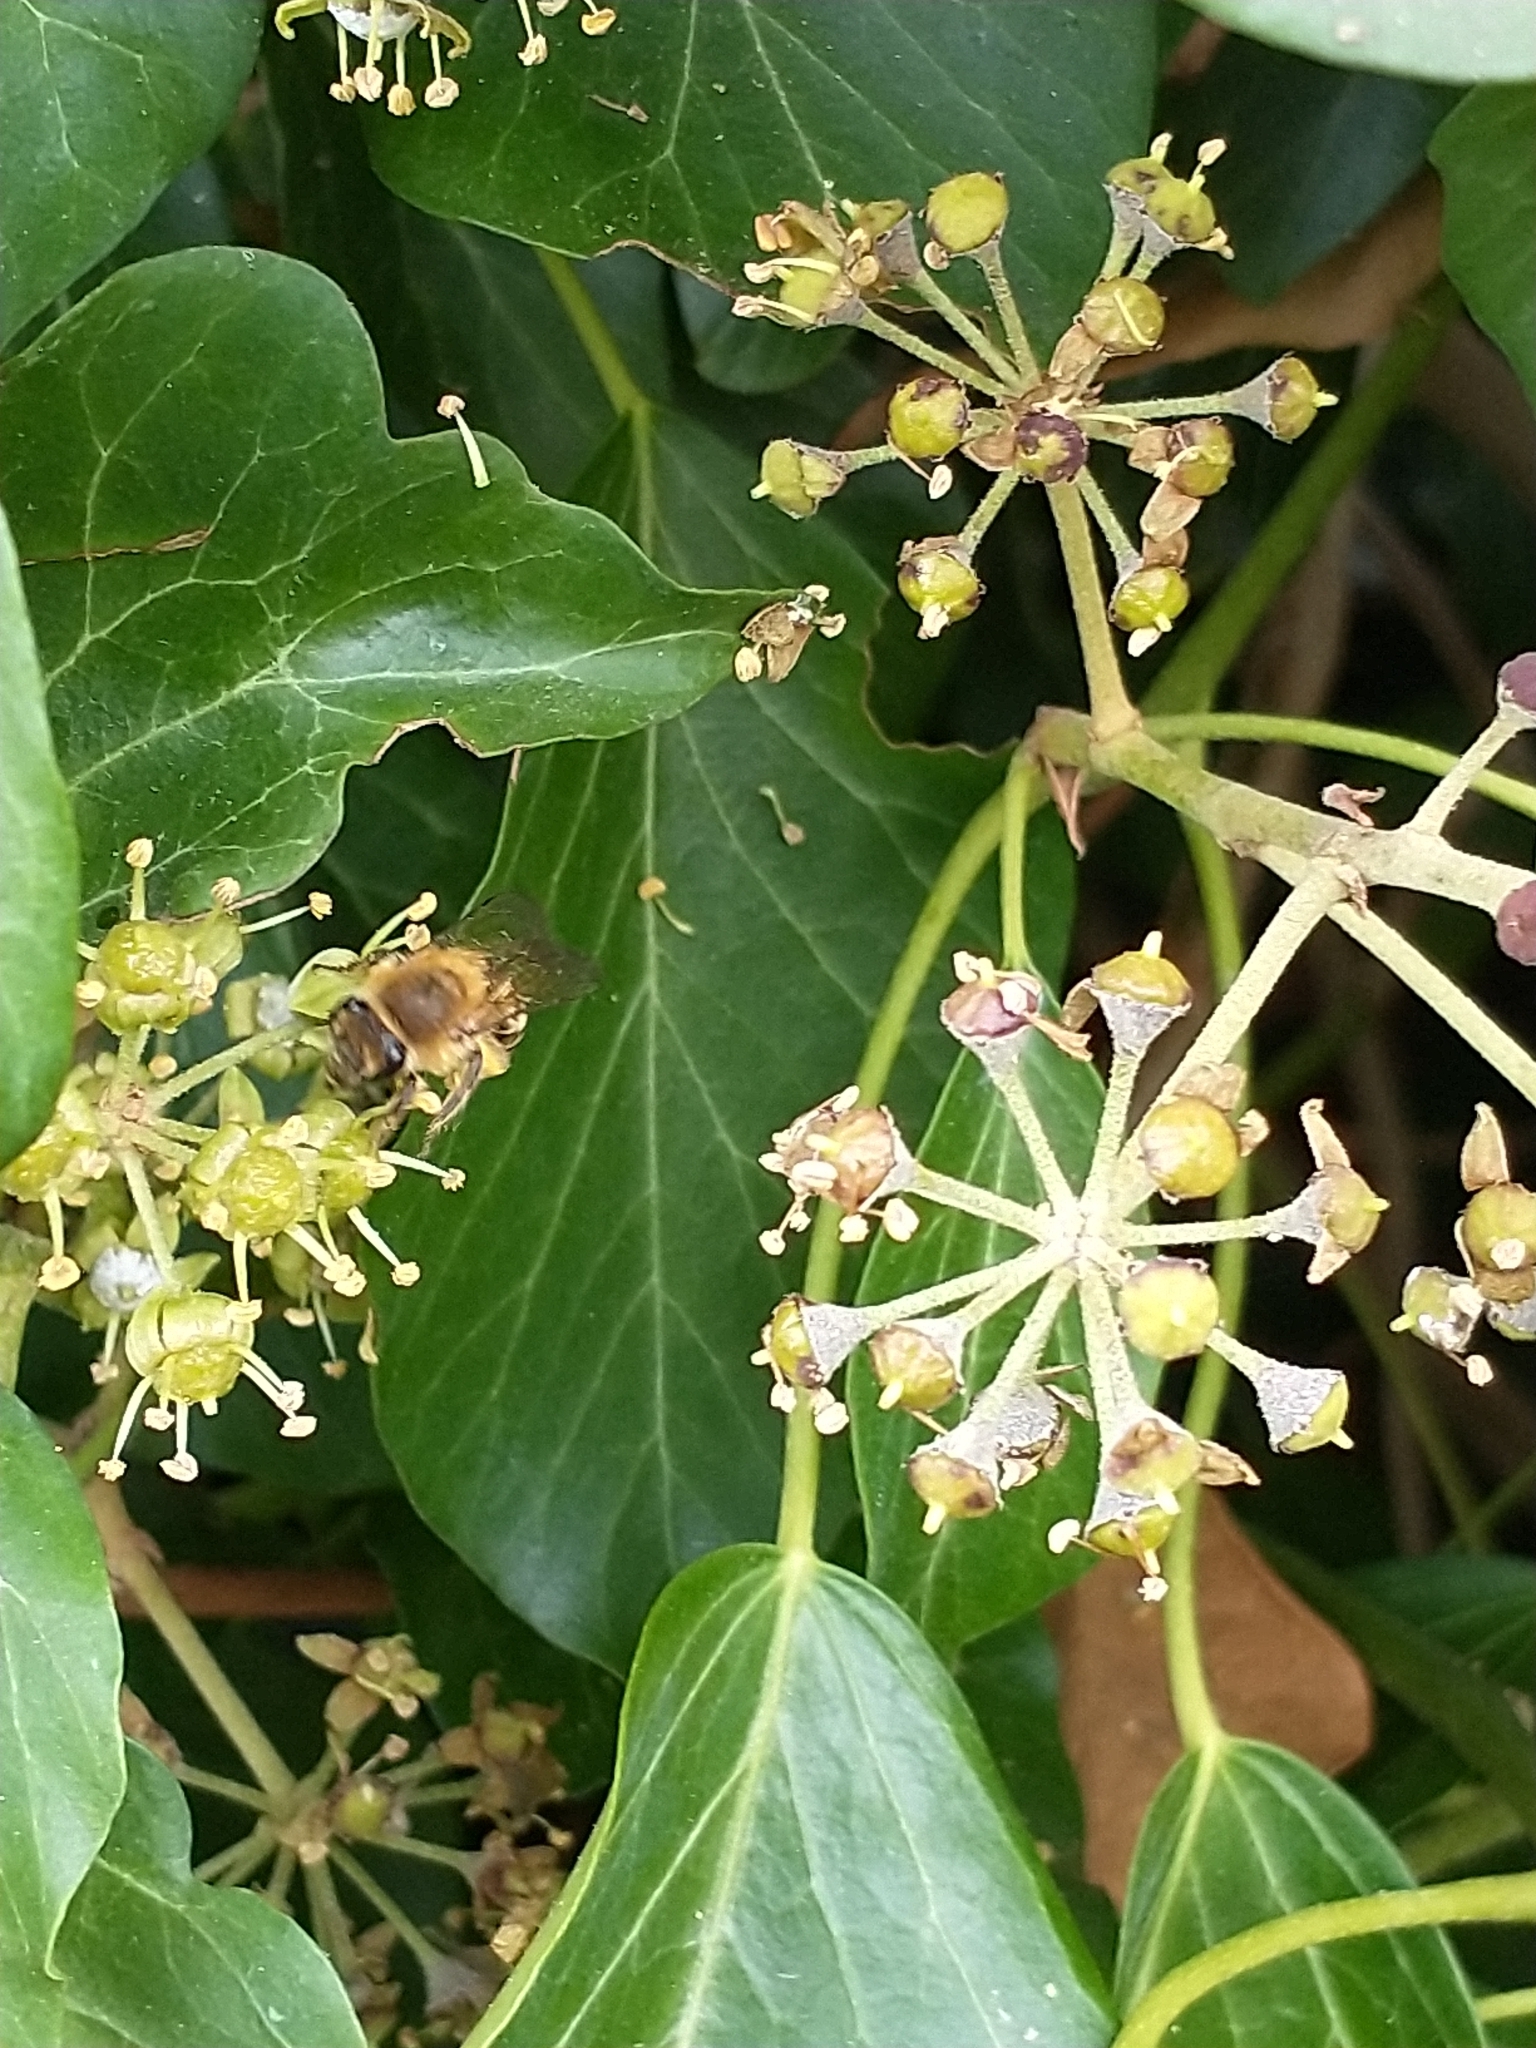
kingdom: Animalia
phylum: Arthropoda
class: Insecta
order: Hymenoptera
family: Colletidae
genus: Colletes
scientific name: Colletes hederae
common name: Ivy bee
